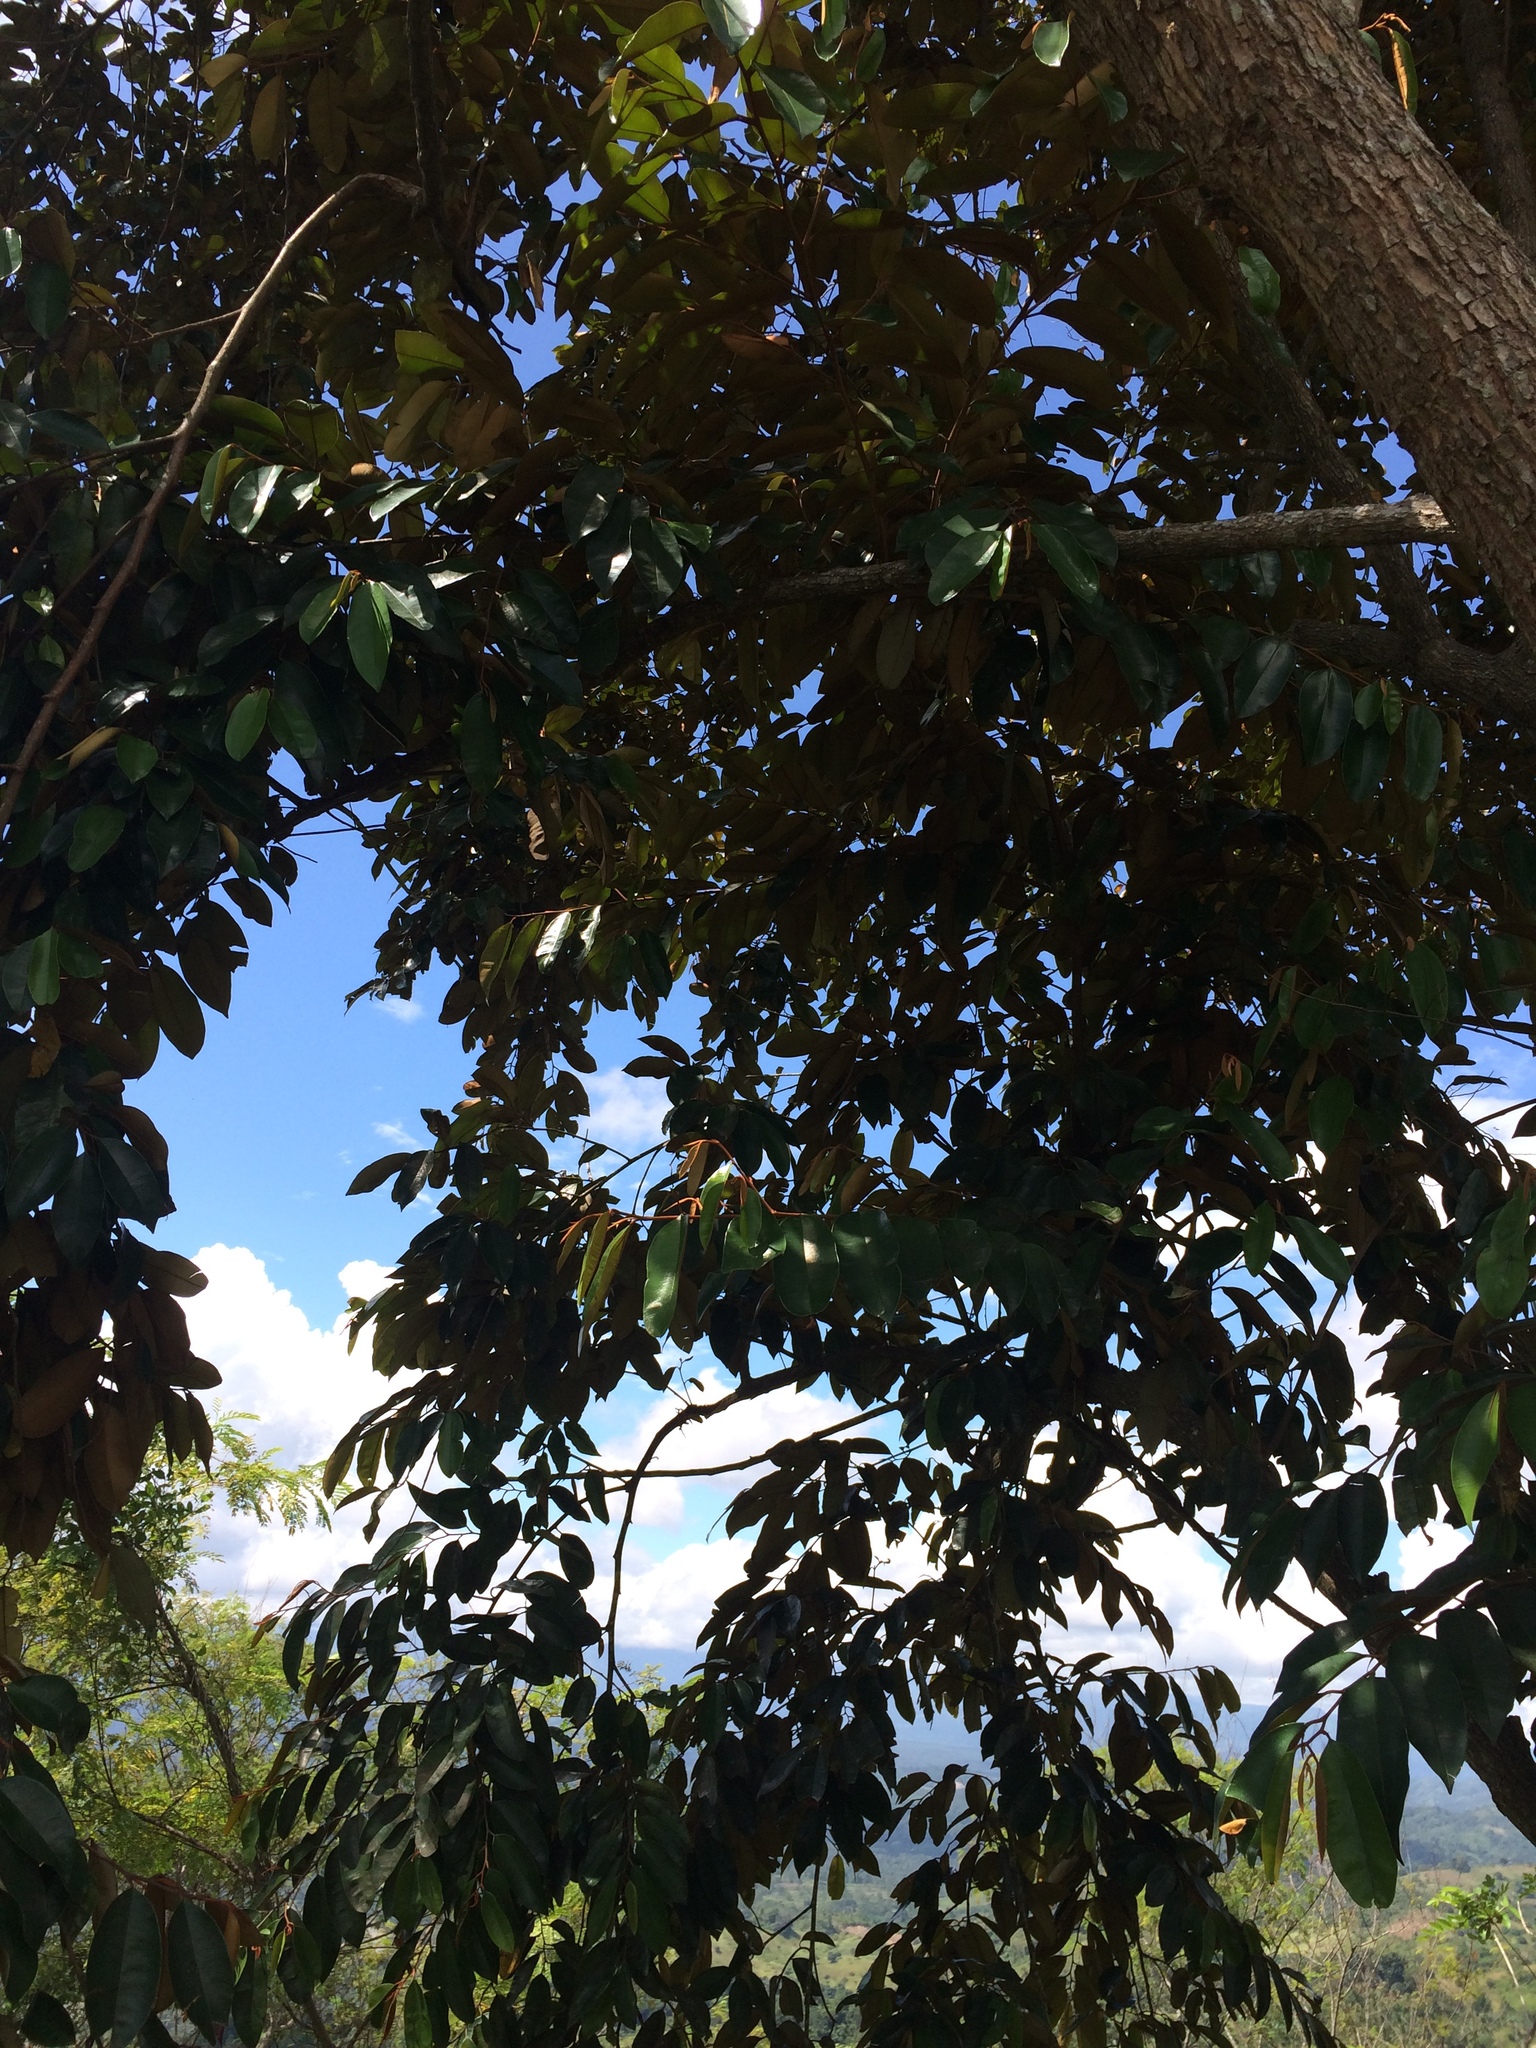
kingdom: Plantae
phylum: Tracheophyta
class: Magnoliopsida
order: Ericales
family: Sapotaceae
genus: Chrysophyllum
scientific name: Chrysophyllum cainito
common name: Star-apple
